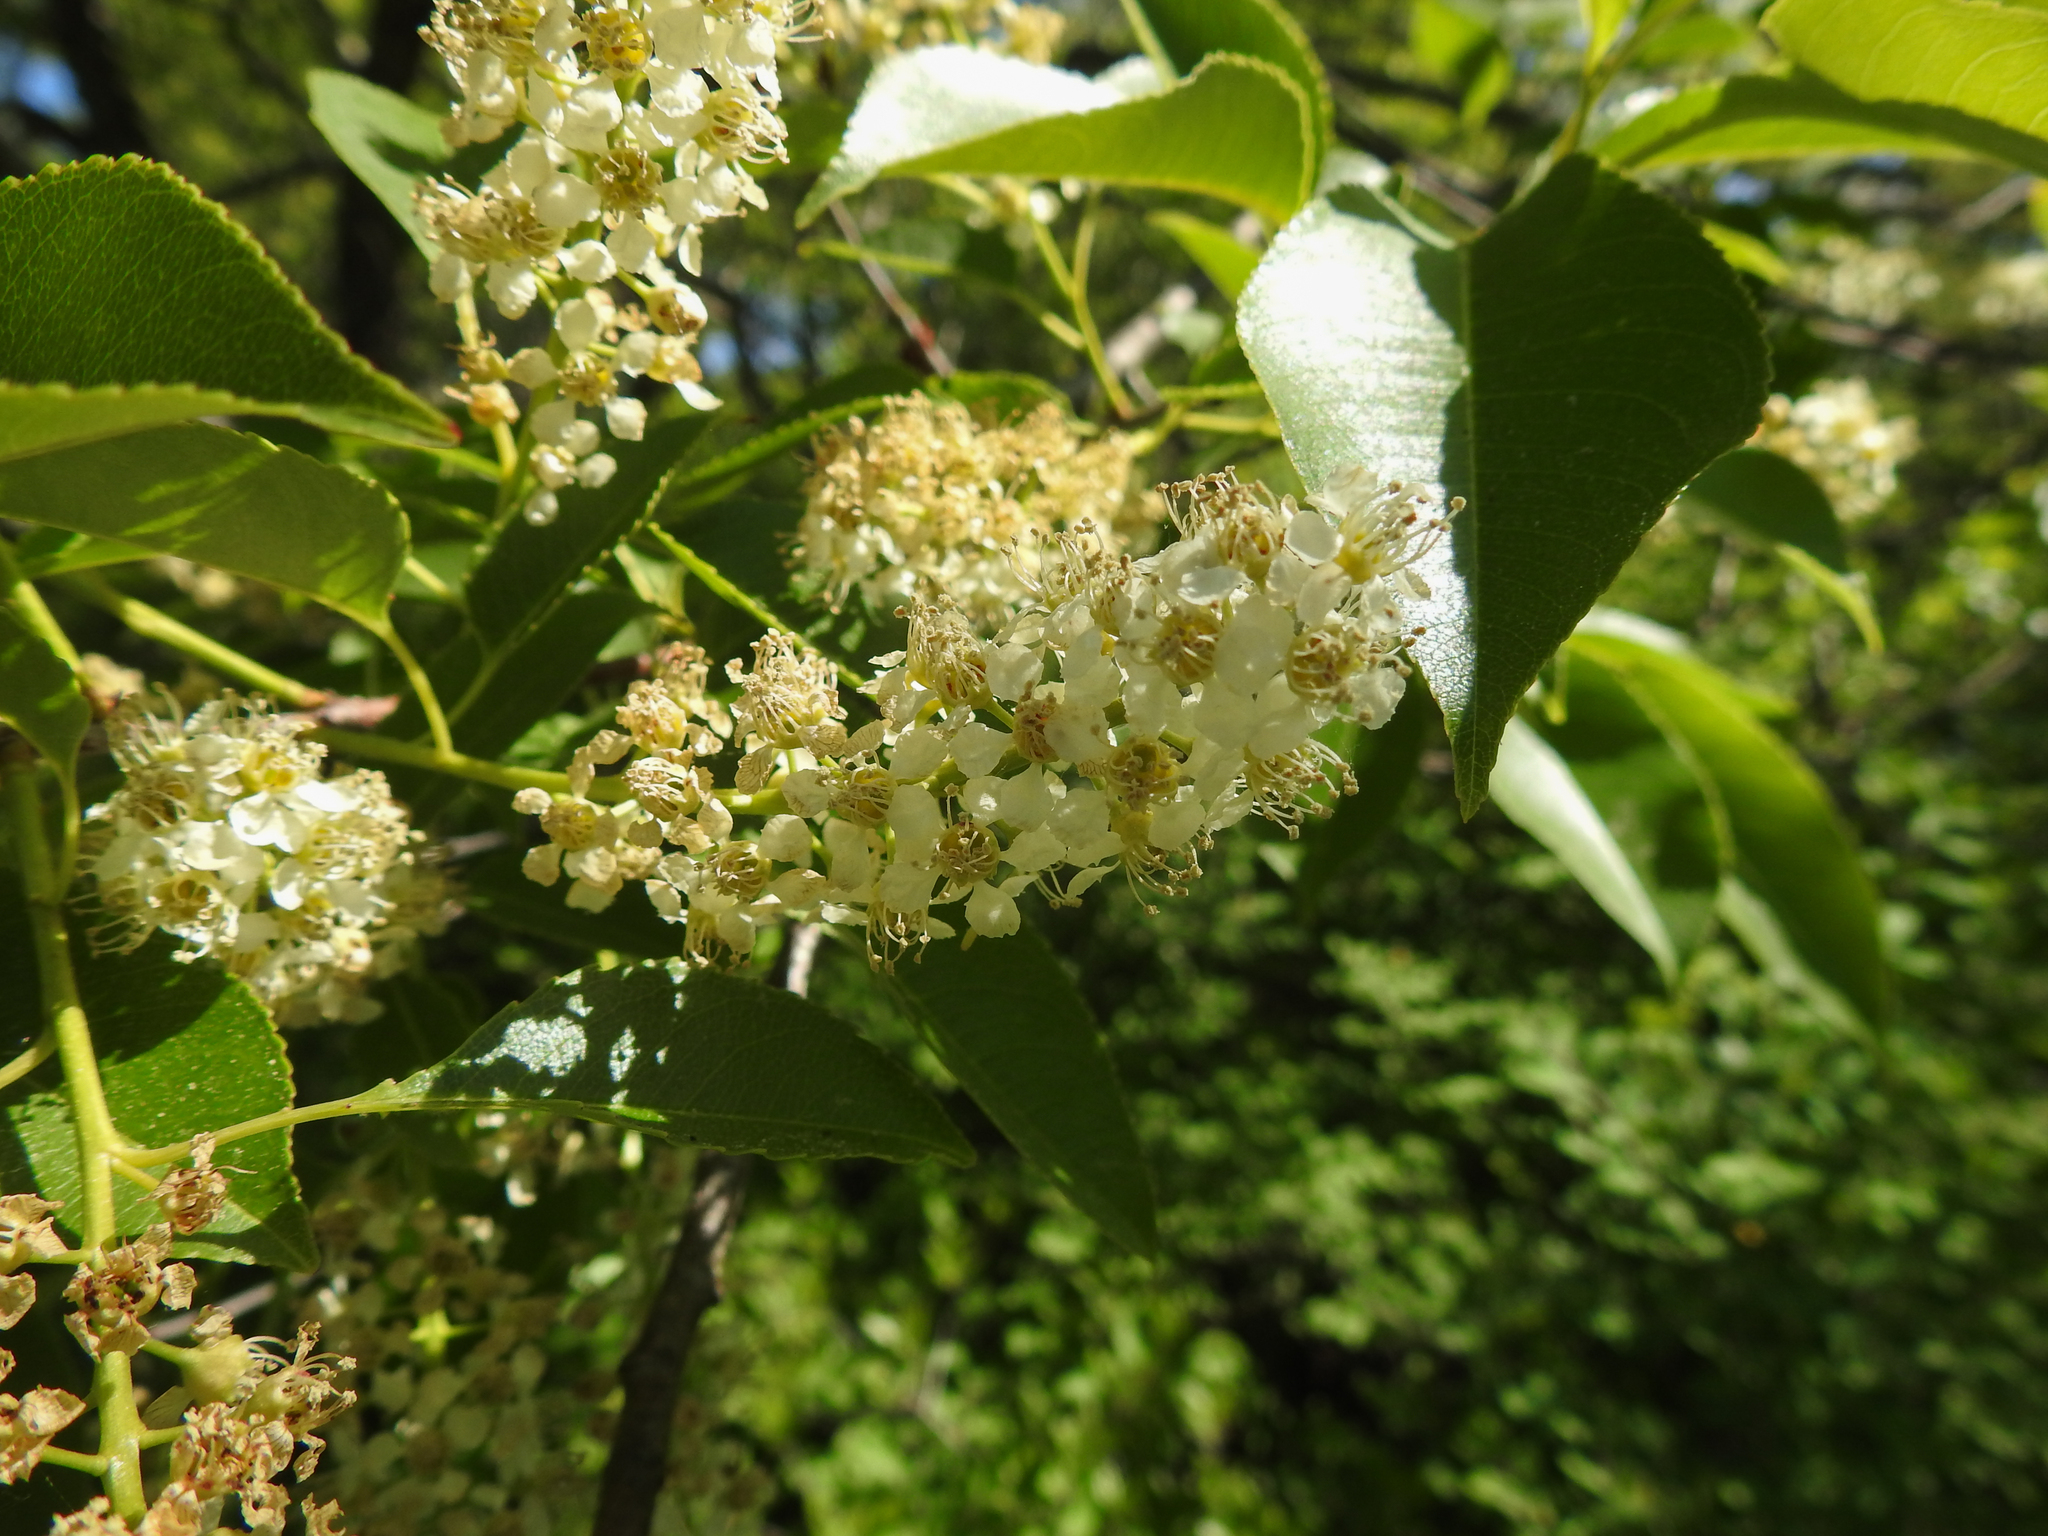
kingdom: Plantae
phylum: Tracheophyta
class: Magnoliopsida
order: Rosales
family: Rosaceae
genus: Prunus
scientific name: Prunus serotina
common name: Black cherry
